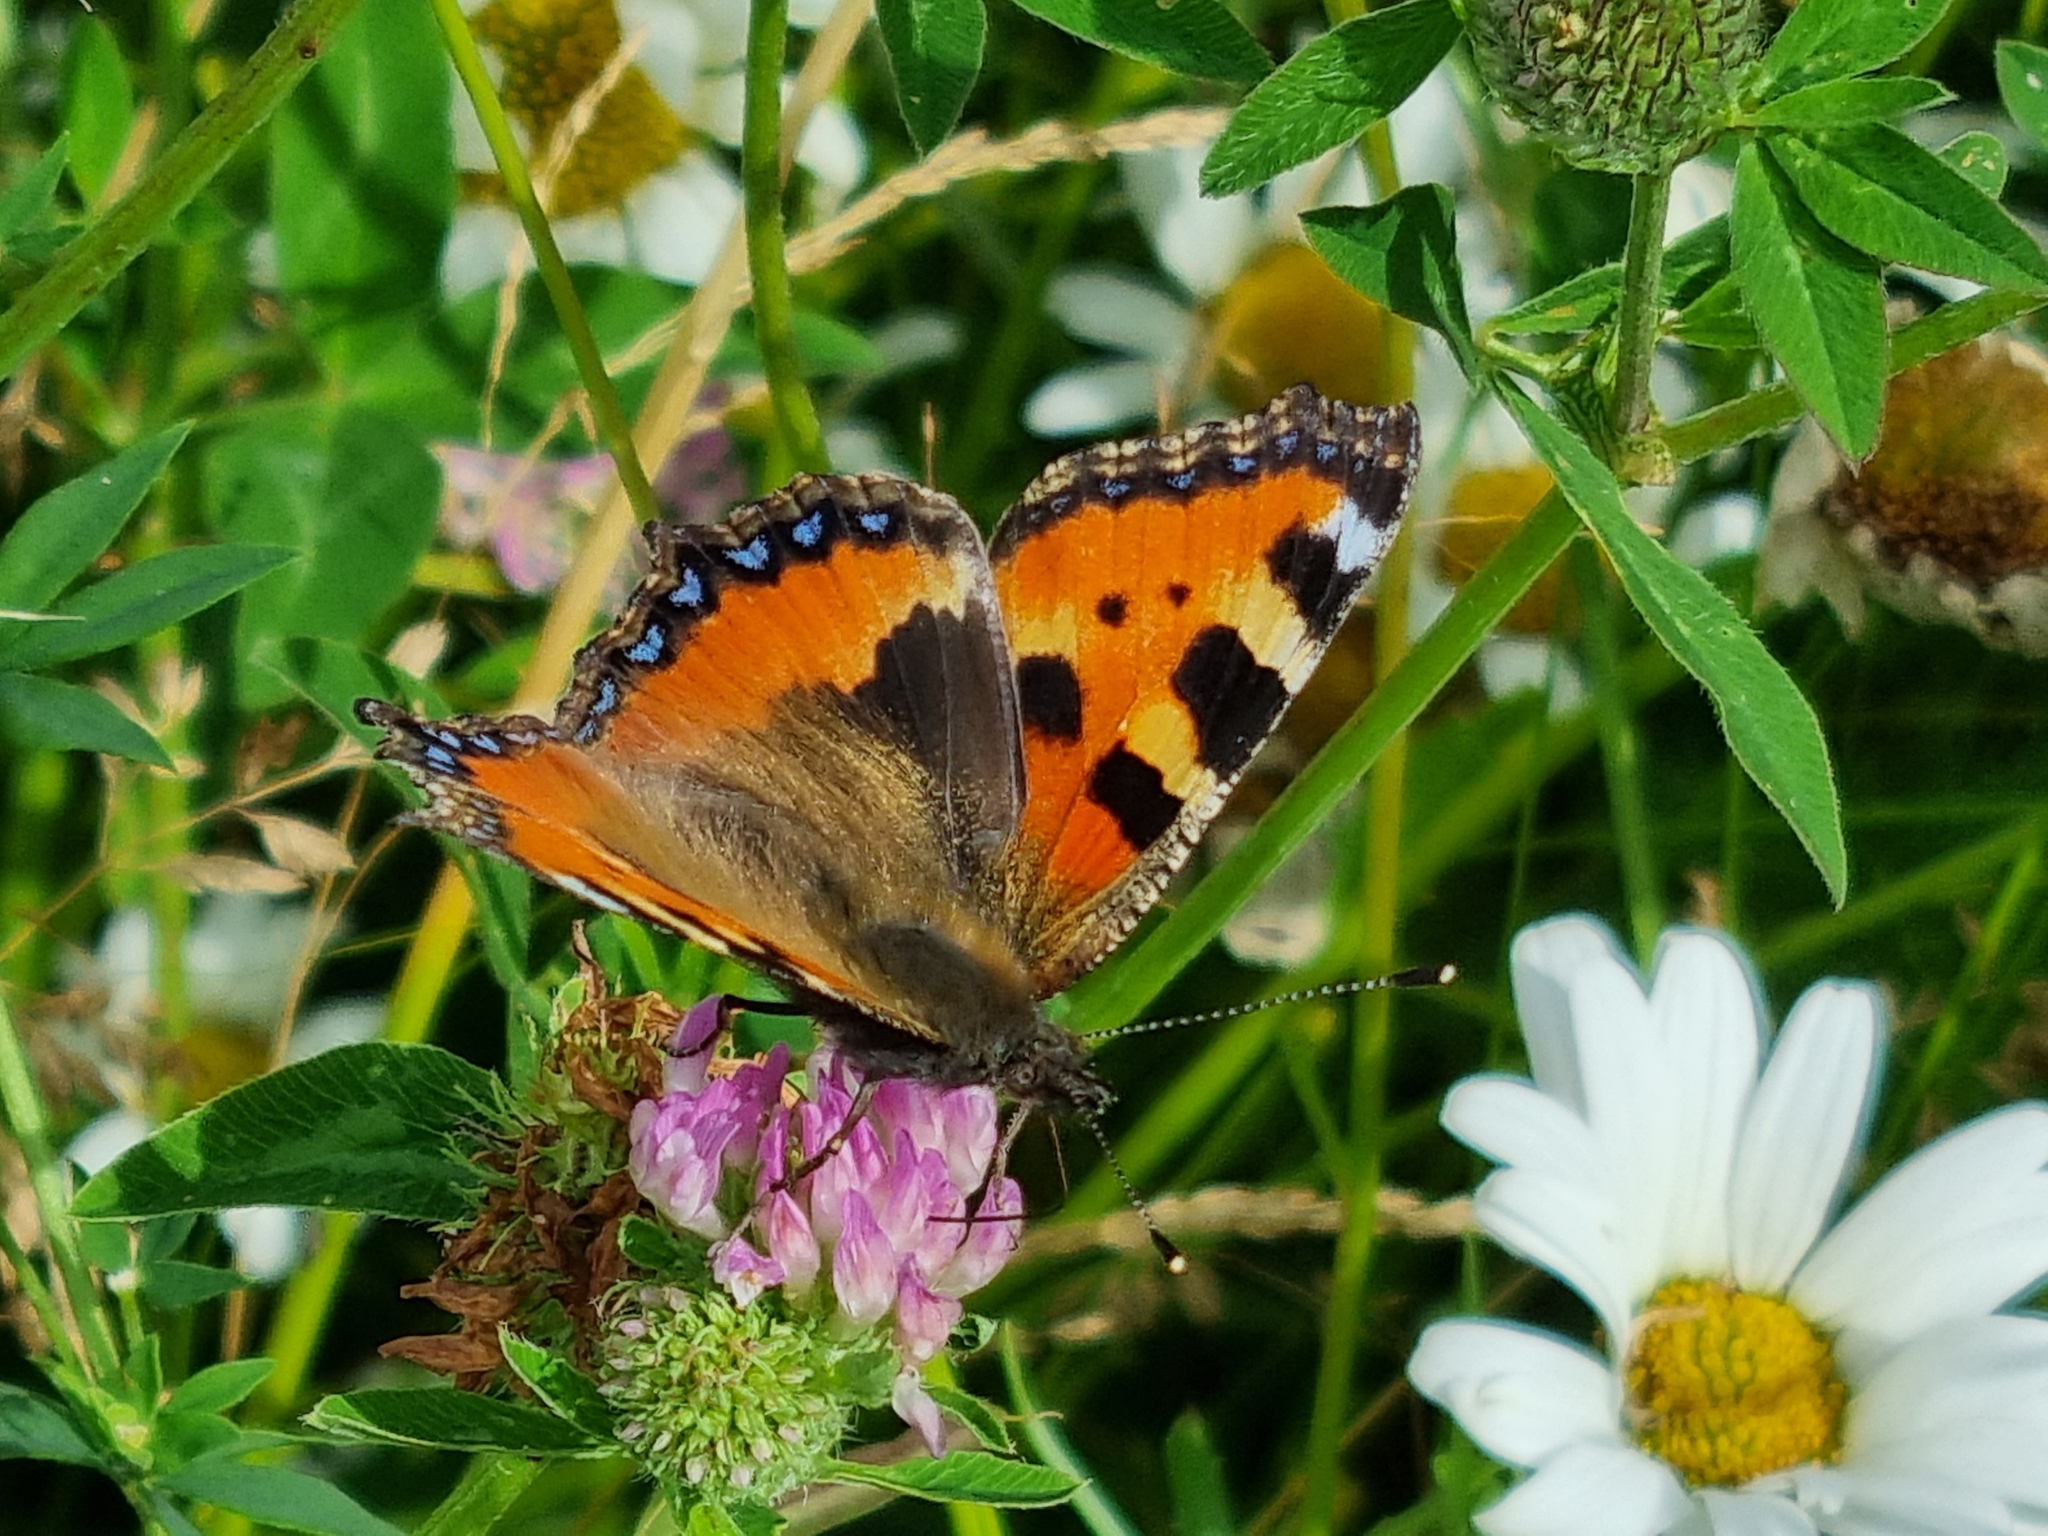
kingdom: Animalia
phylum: Arthropoda
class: Insecta
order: Lepidoptera
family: Nymphalidae
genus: Aglais
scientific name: Aglais urticae
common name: Small tortoiseshell
